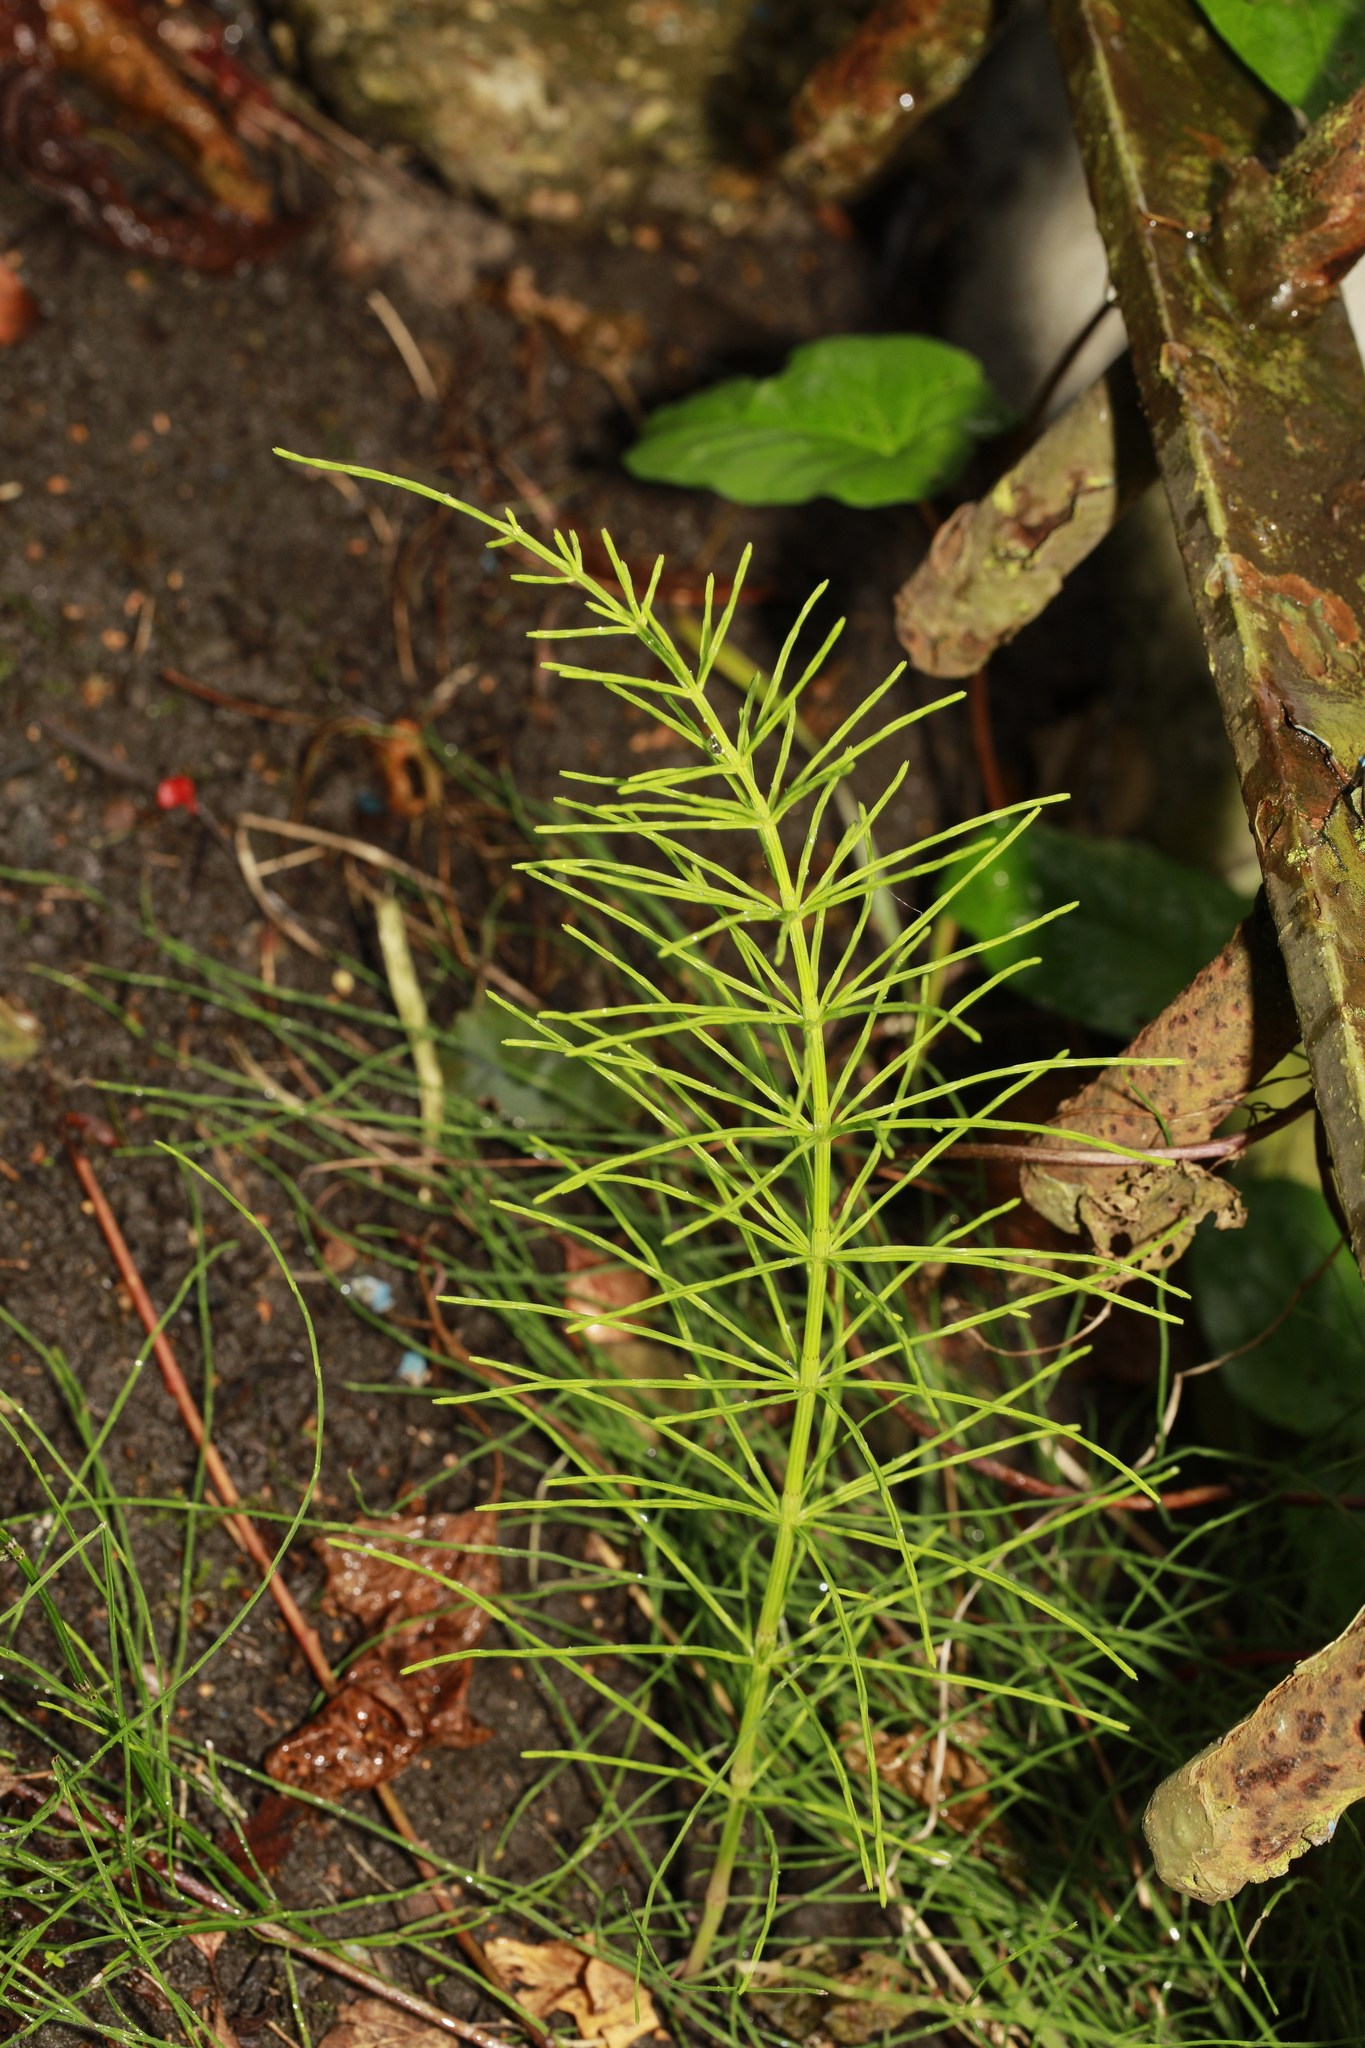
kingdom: Plantae
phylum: Tracheophyta
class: Polypodiopsida
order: Equisetales
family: Equisetaceae
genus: Equisetum
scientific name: Equisetum arvense
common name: Field horsetail
